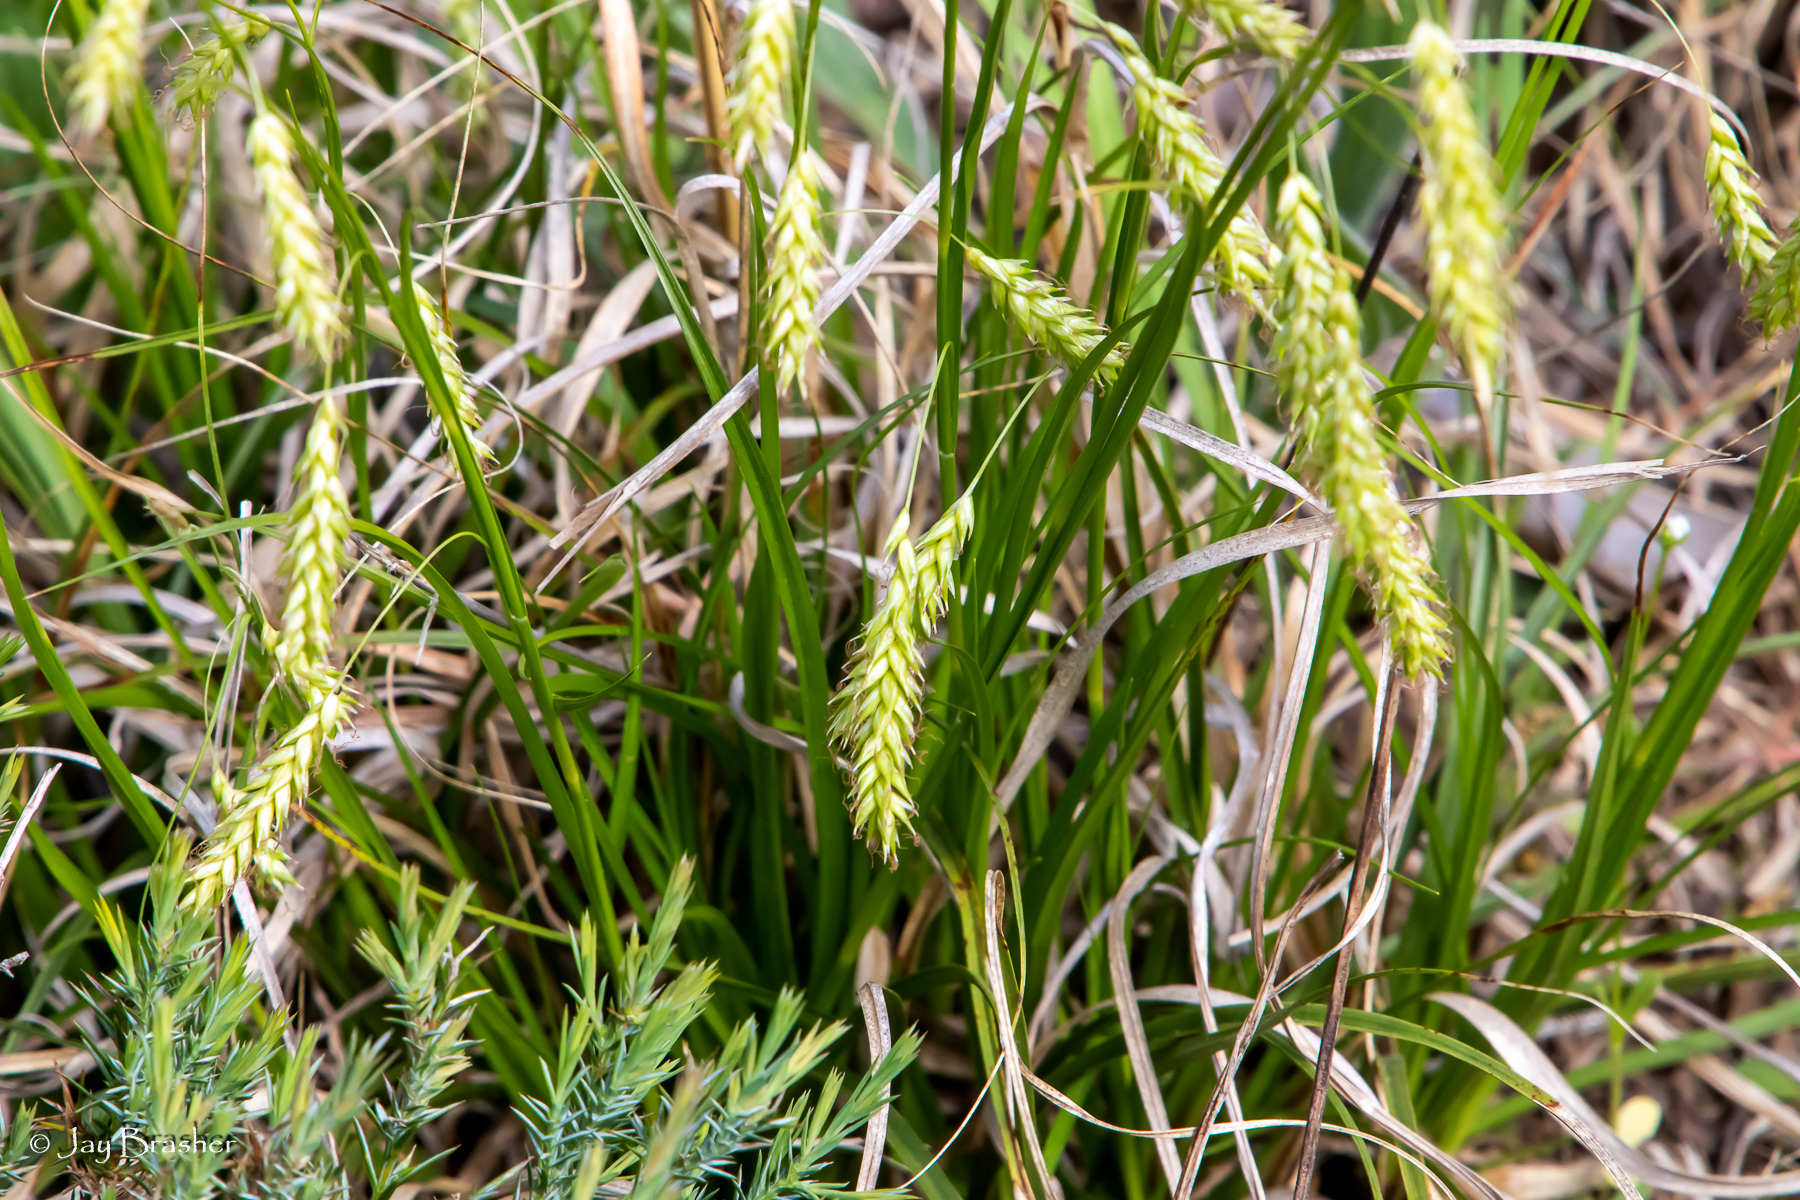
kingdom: Plantae
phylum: Tracheophyta
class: Liliopsida
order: Poales
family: Cyperaceae
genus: Carex
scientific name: Carex cherokeensis
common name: Cherokee sedge
